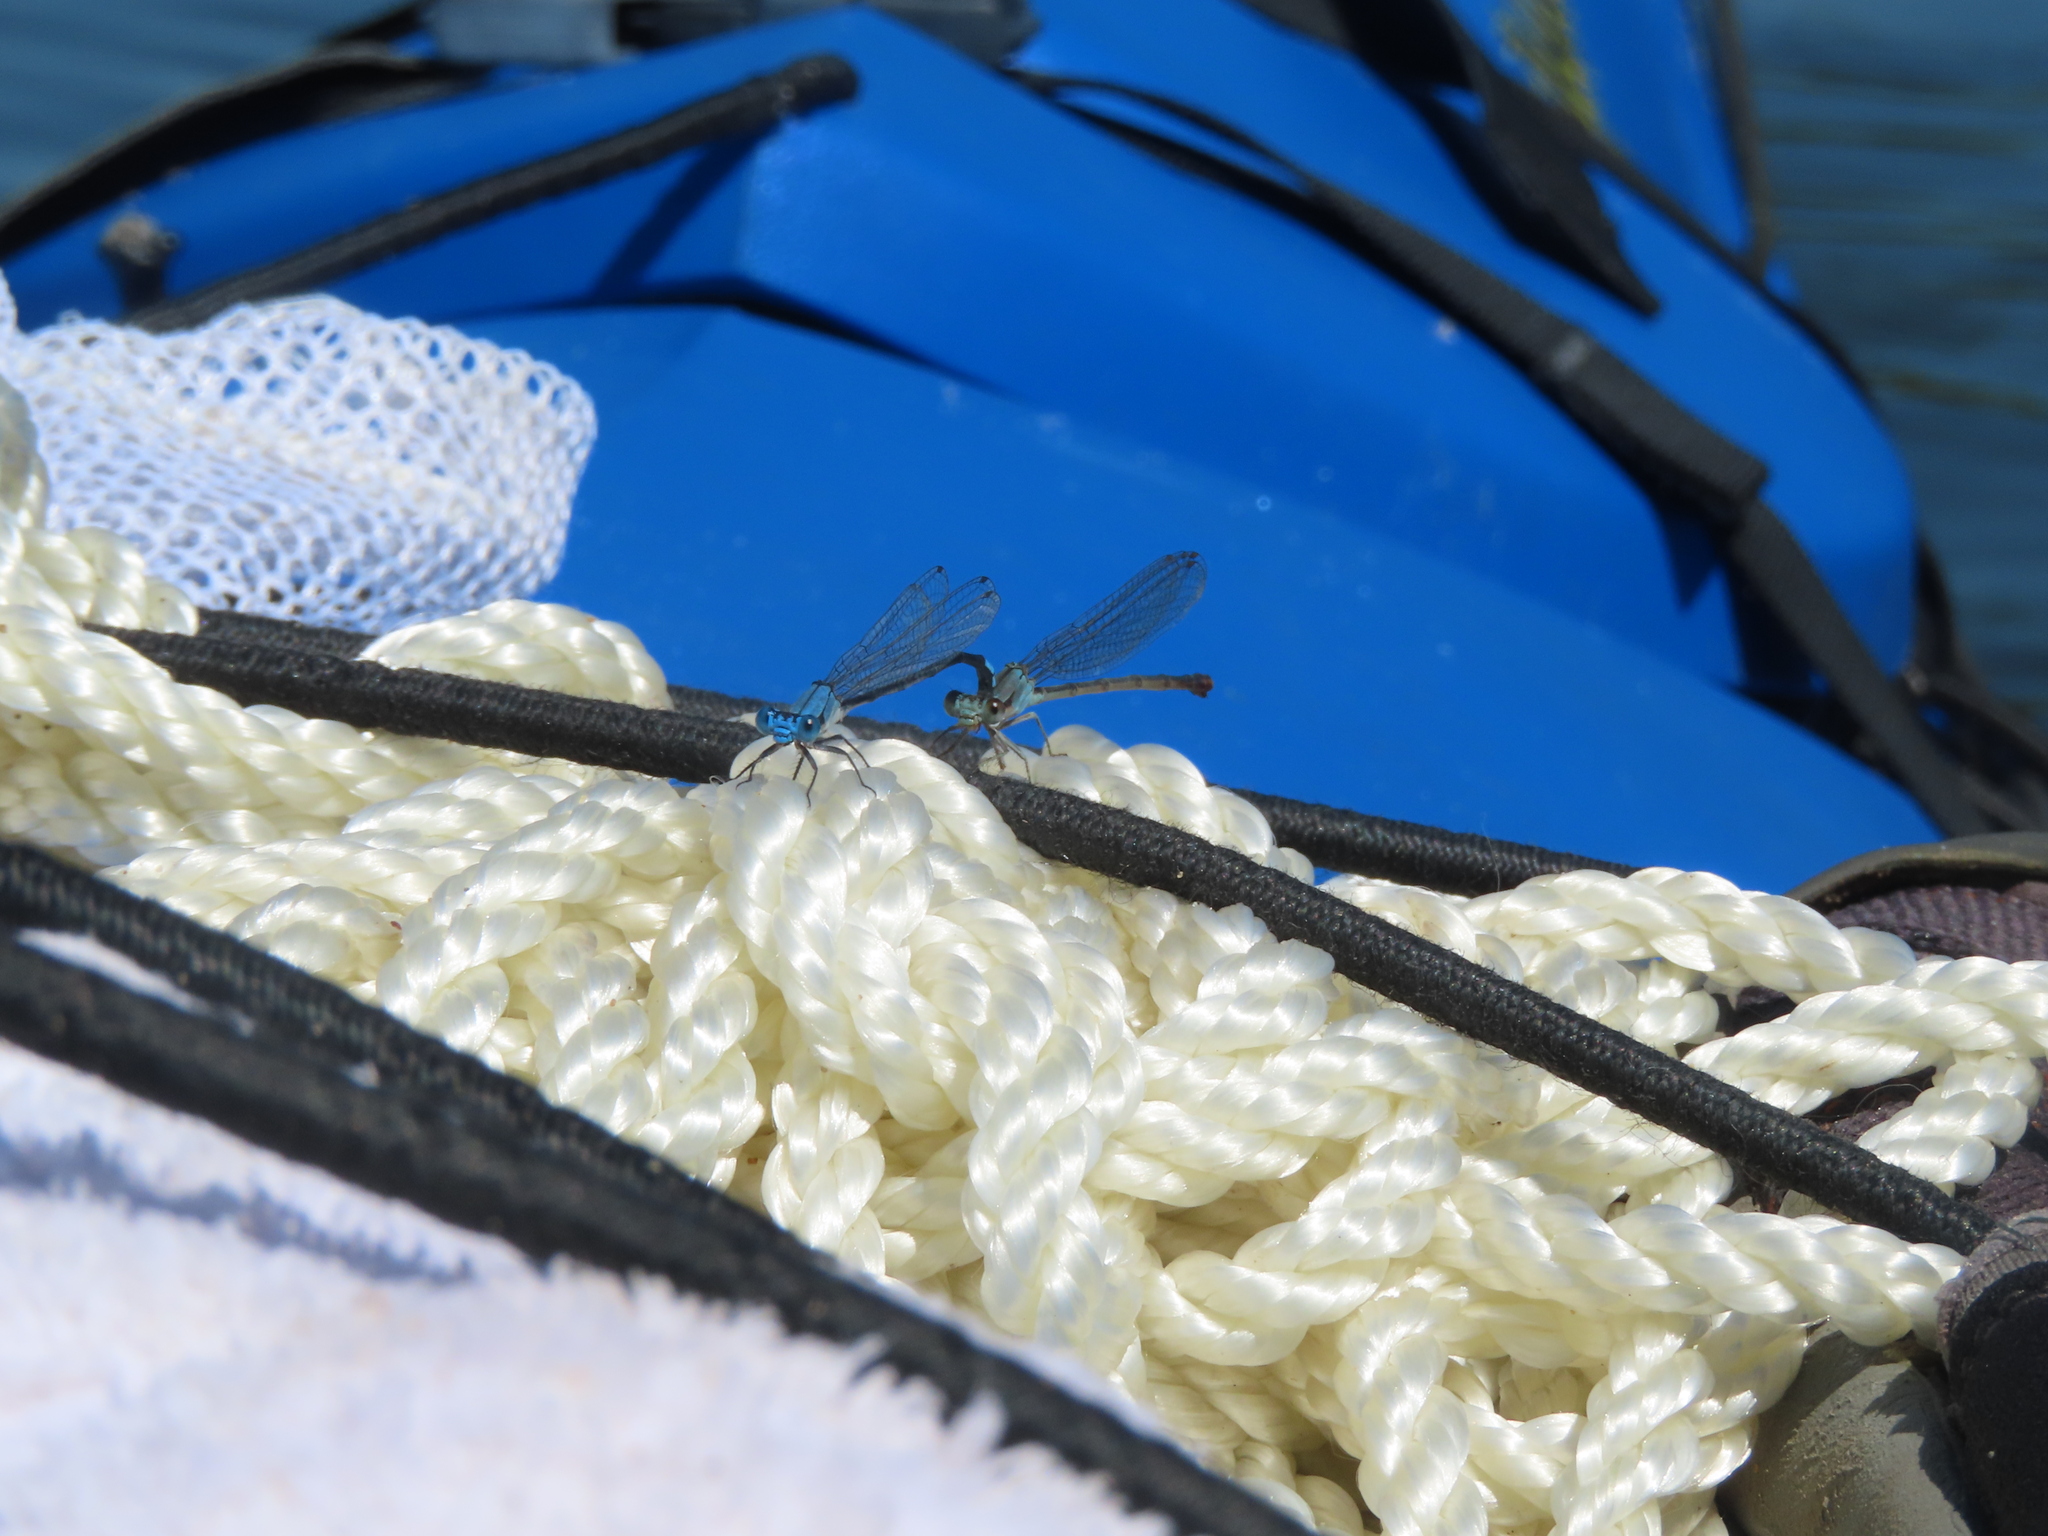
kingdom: Animalia
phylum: Arthropoda
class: Insecta
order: Odonata
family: Coenagrionidae
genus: Argia
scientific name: Argia apicalis
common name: Blue-fronted dancer
